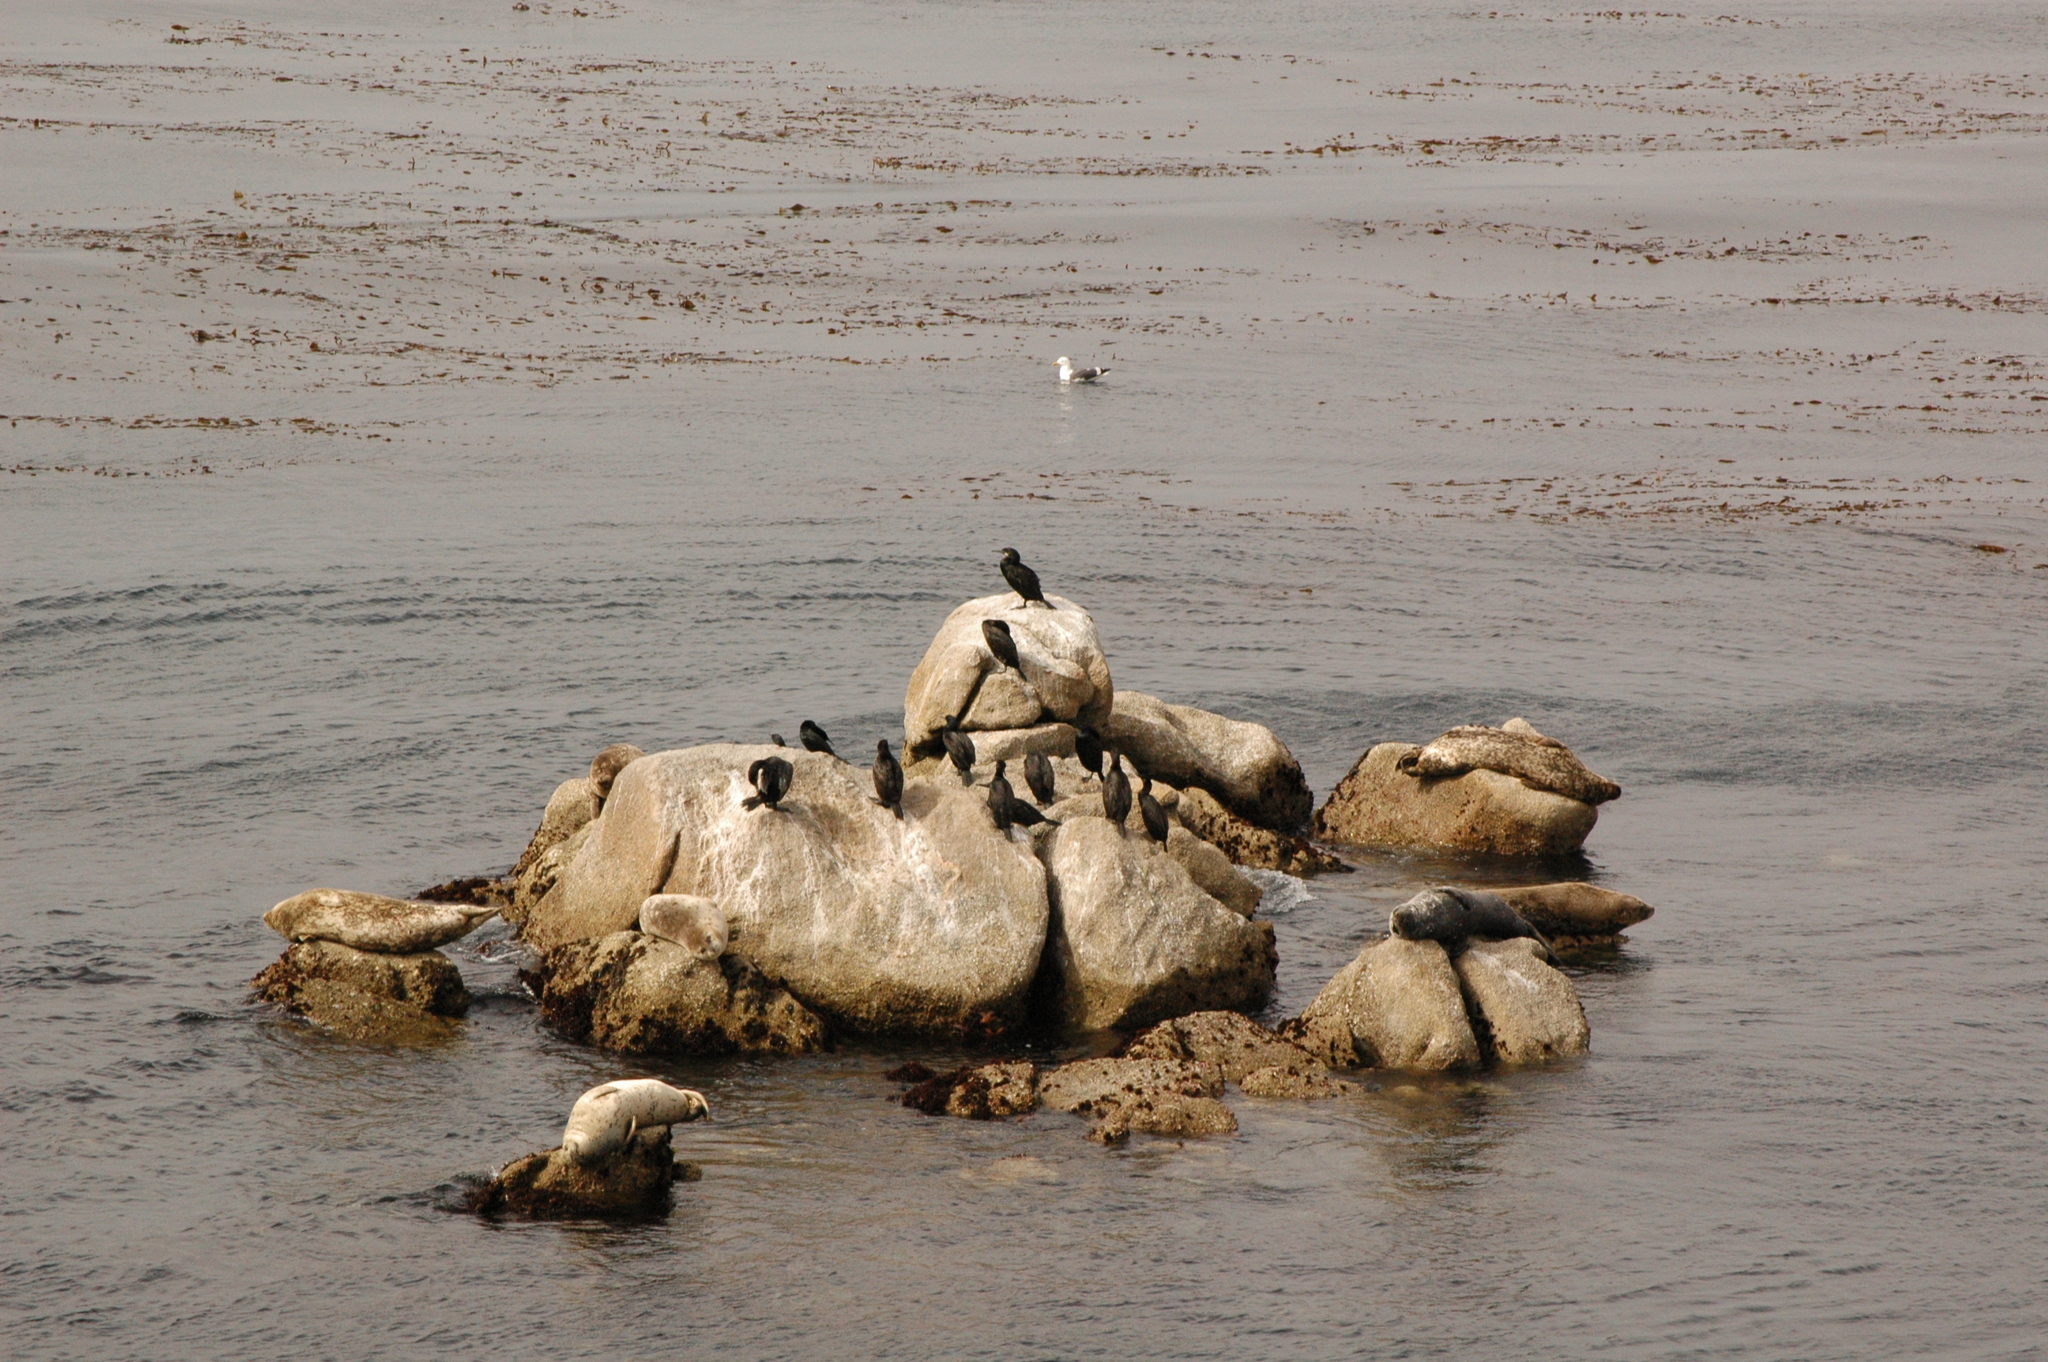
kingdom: Animalia
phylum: Chordata
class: Aves
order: Suliformes
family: Phalacrocoracidae
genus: Urile
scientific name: Urile penicillatus
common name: Brandt's cormorant
